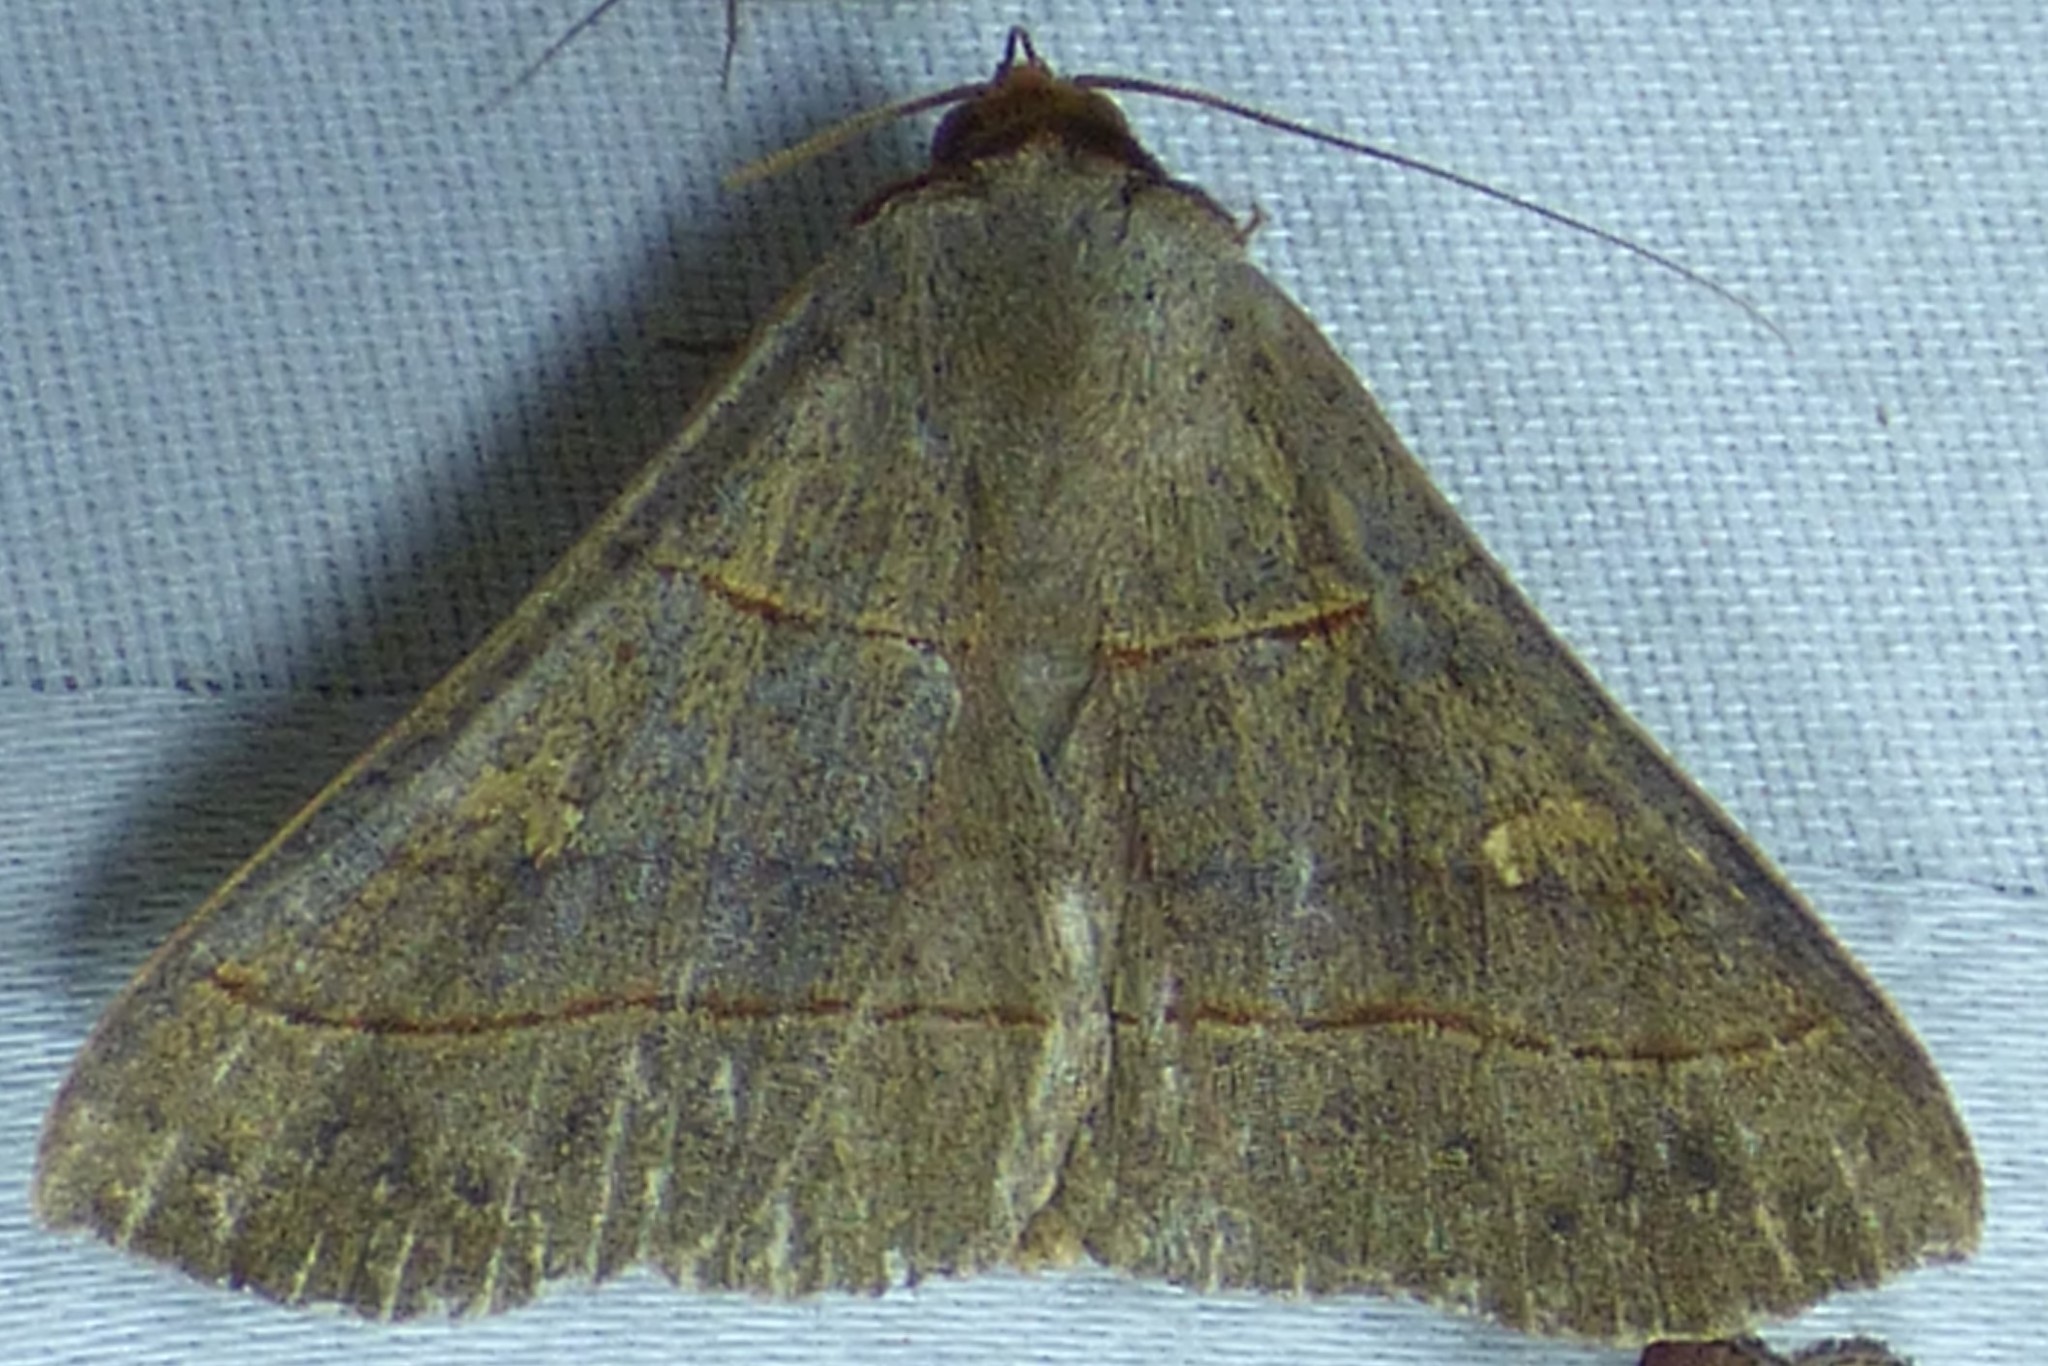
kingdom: Animalia
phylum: Arthropoda
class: Insecta
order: Lepidoptera
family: Erebidae
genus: Panopoda
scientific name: Panopoda rufimargo
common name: Red-lined panopoda moth
